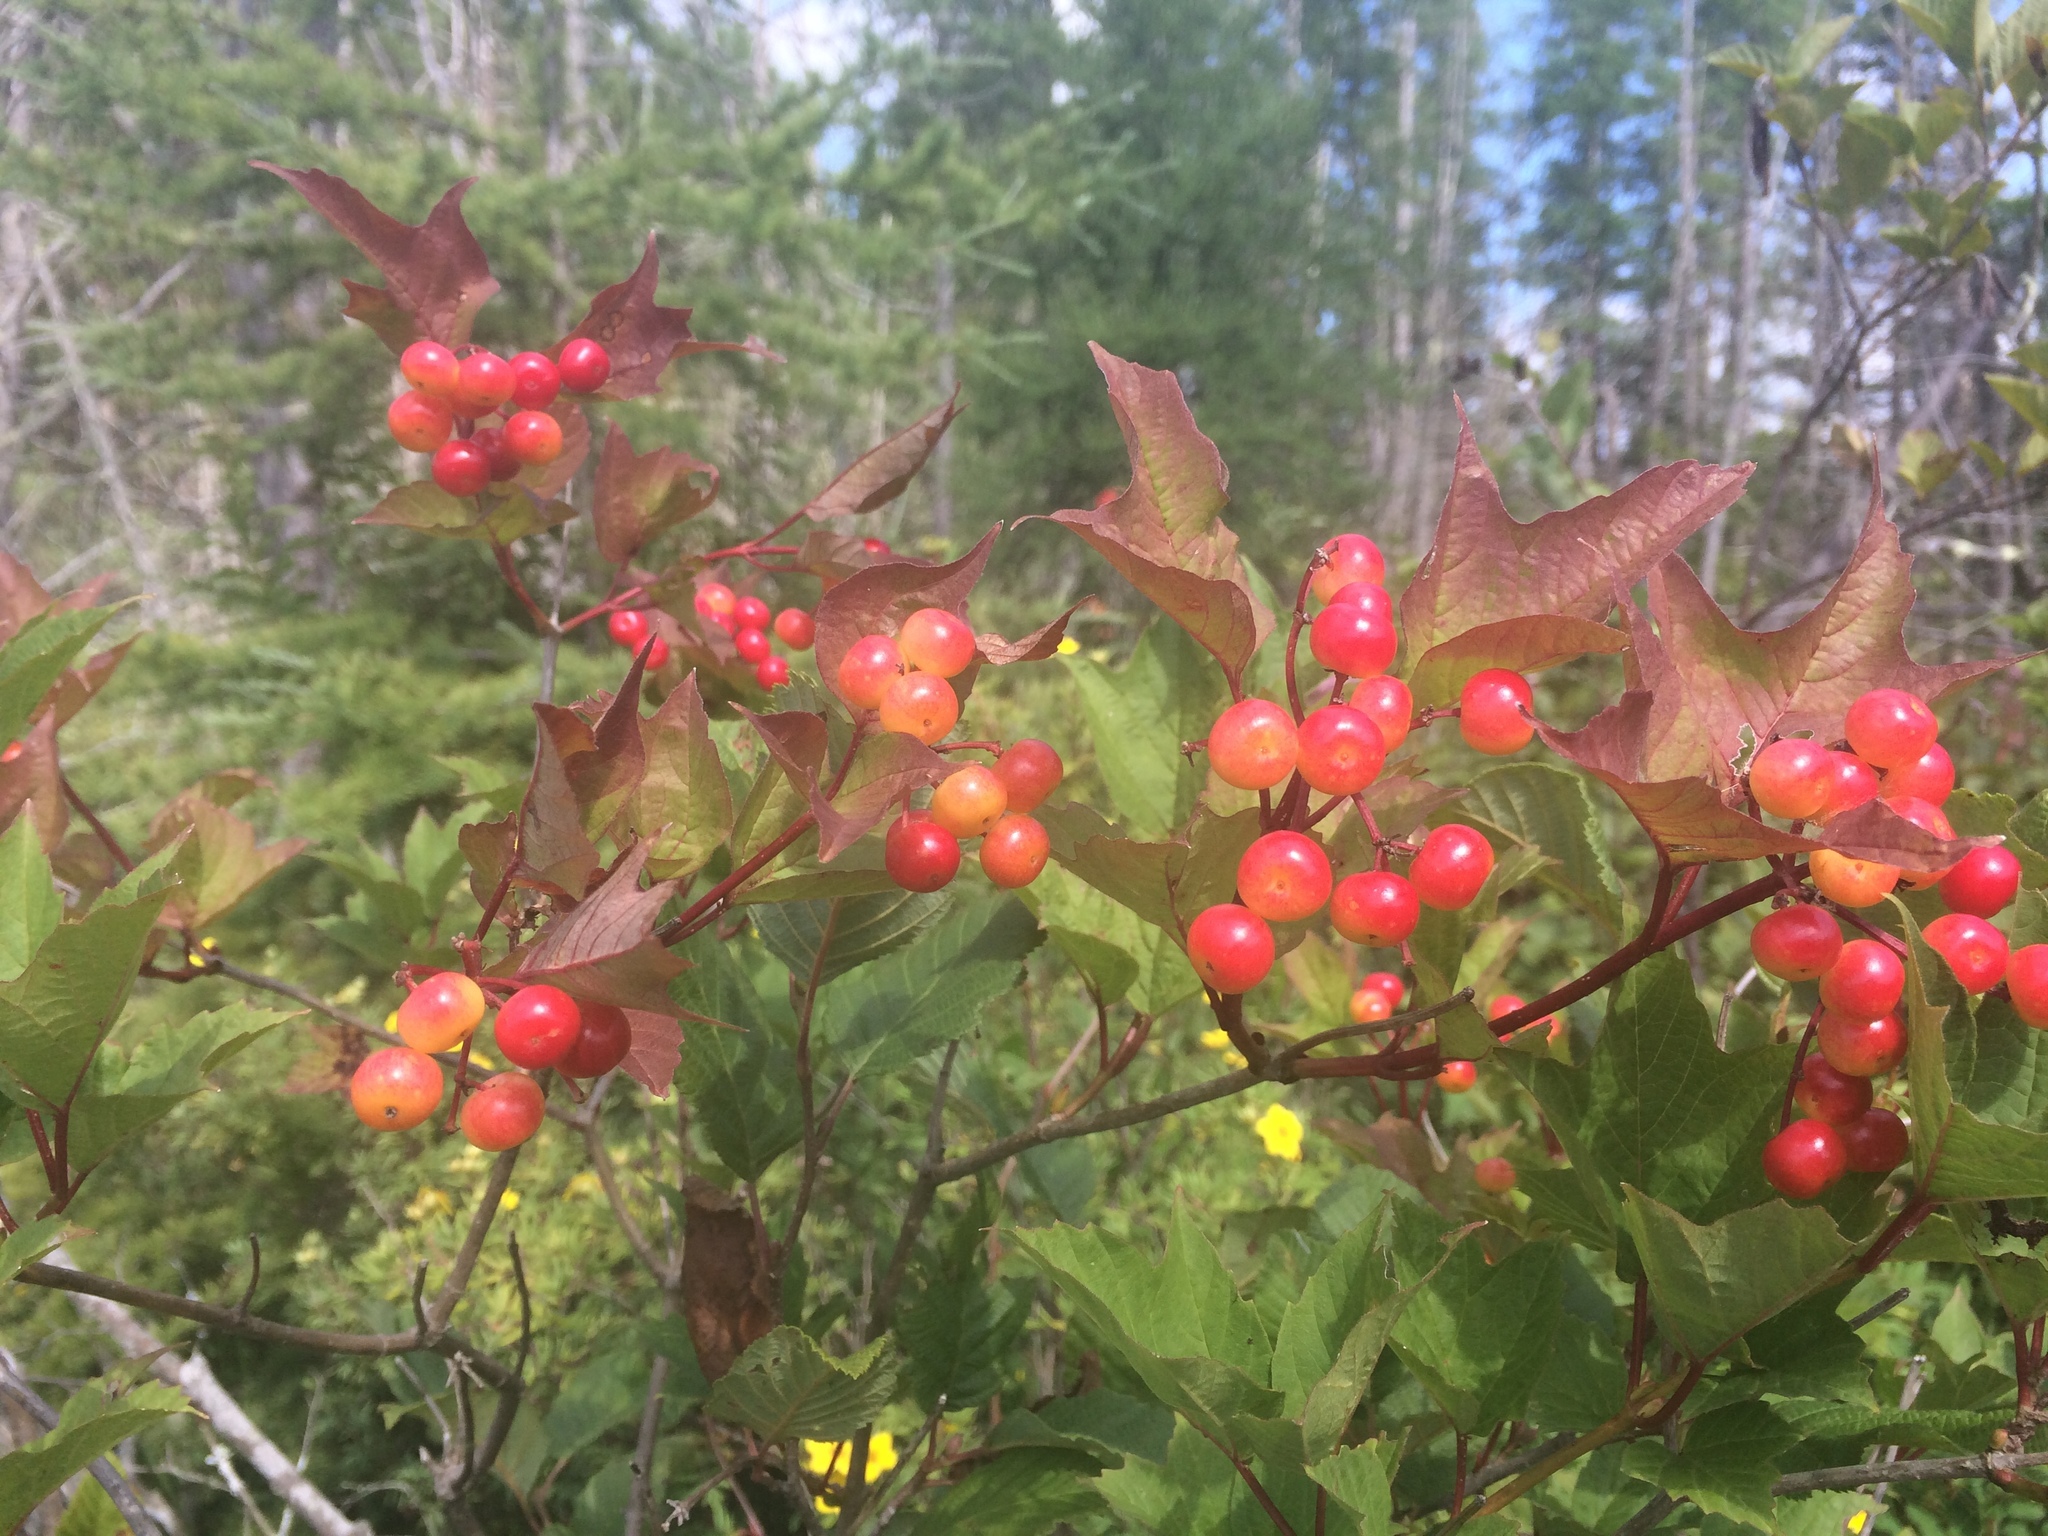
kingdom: Plantae
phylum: Tracheophyta
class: Magnoliopsida
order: Dipsacales
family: Viburnaceae
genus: Viburnum
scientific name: Viburnum trilobum
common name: American cranberrybush
